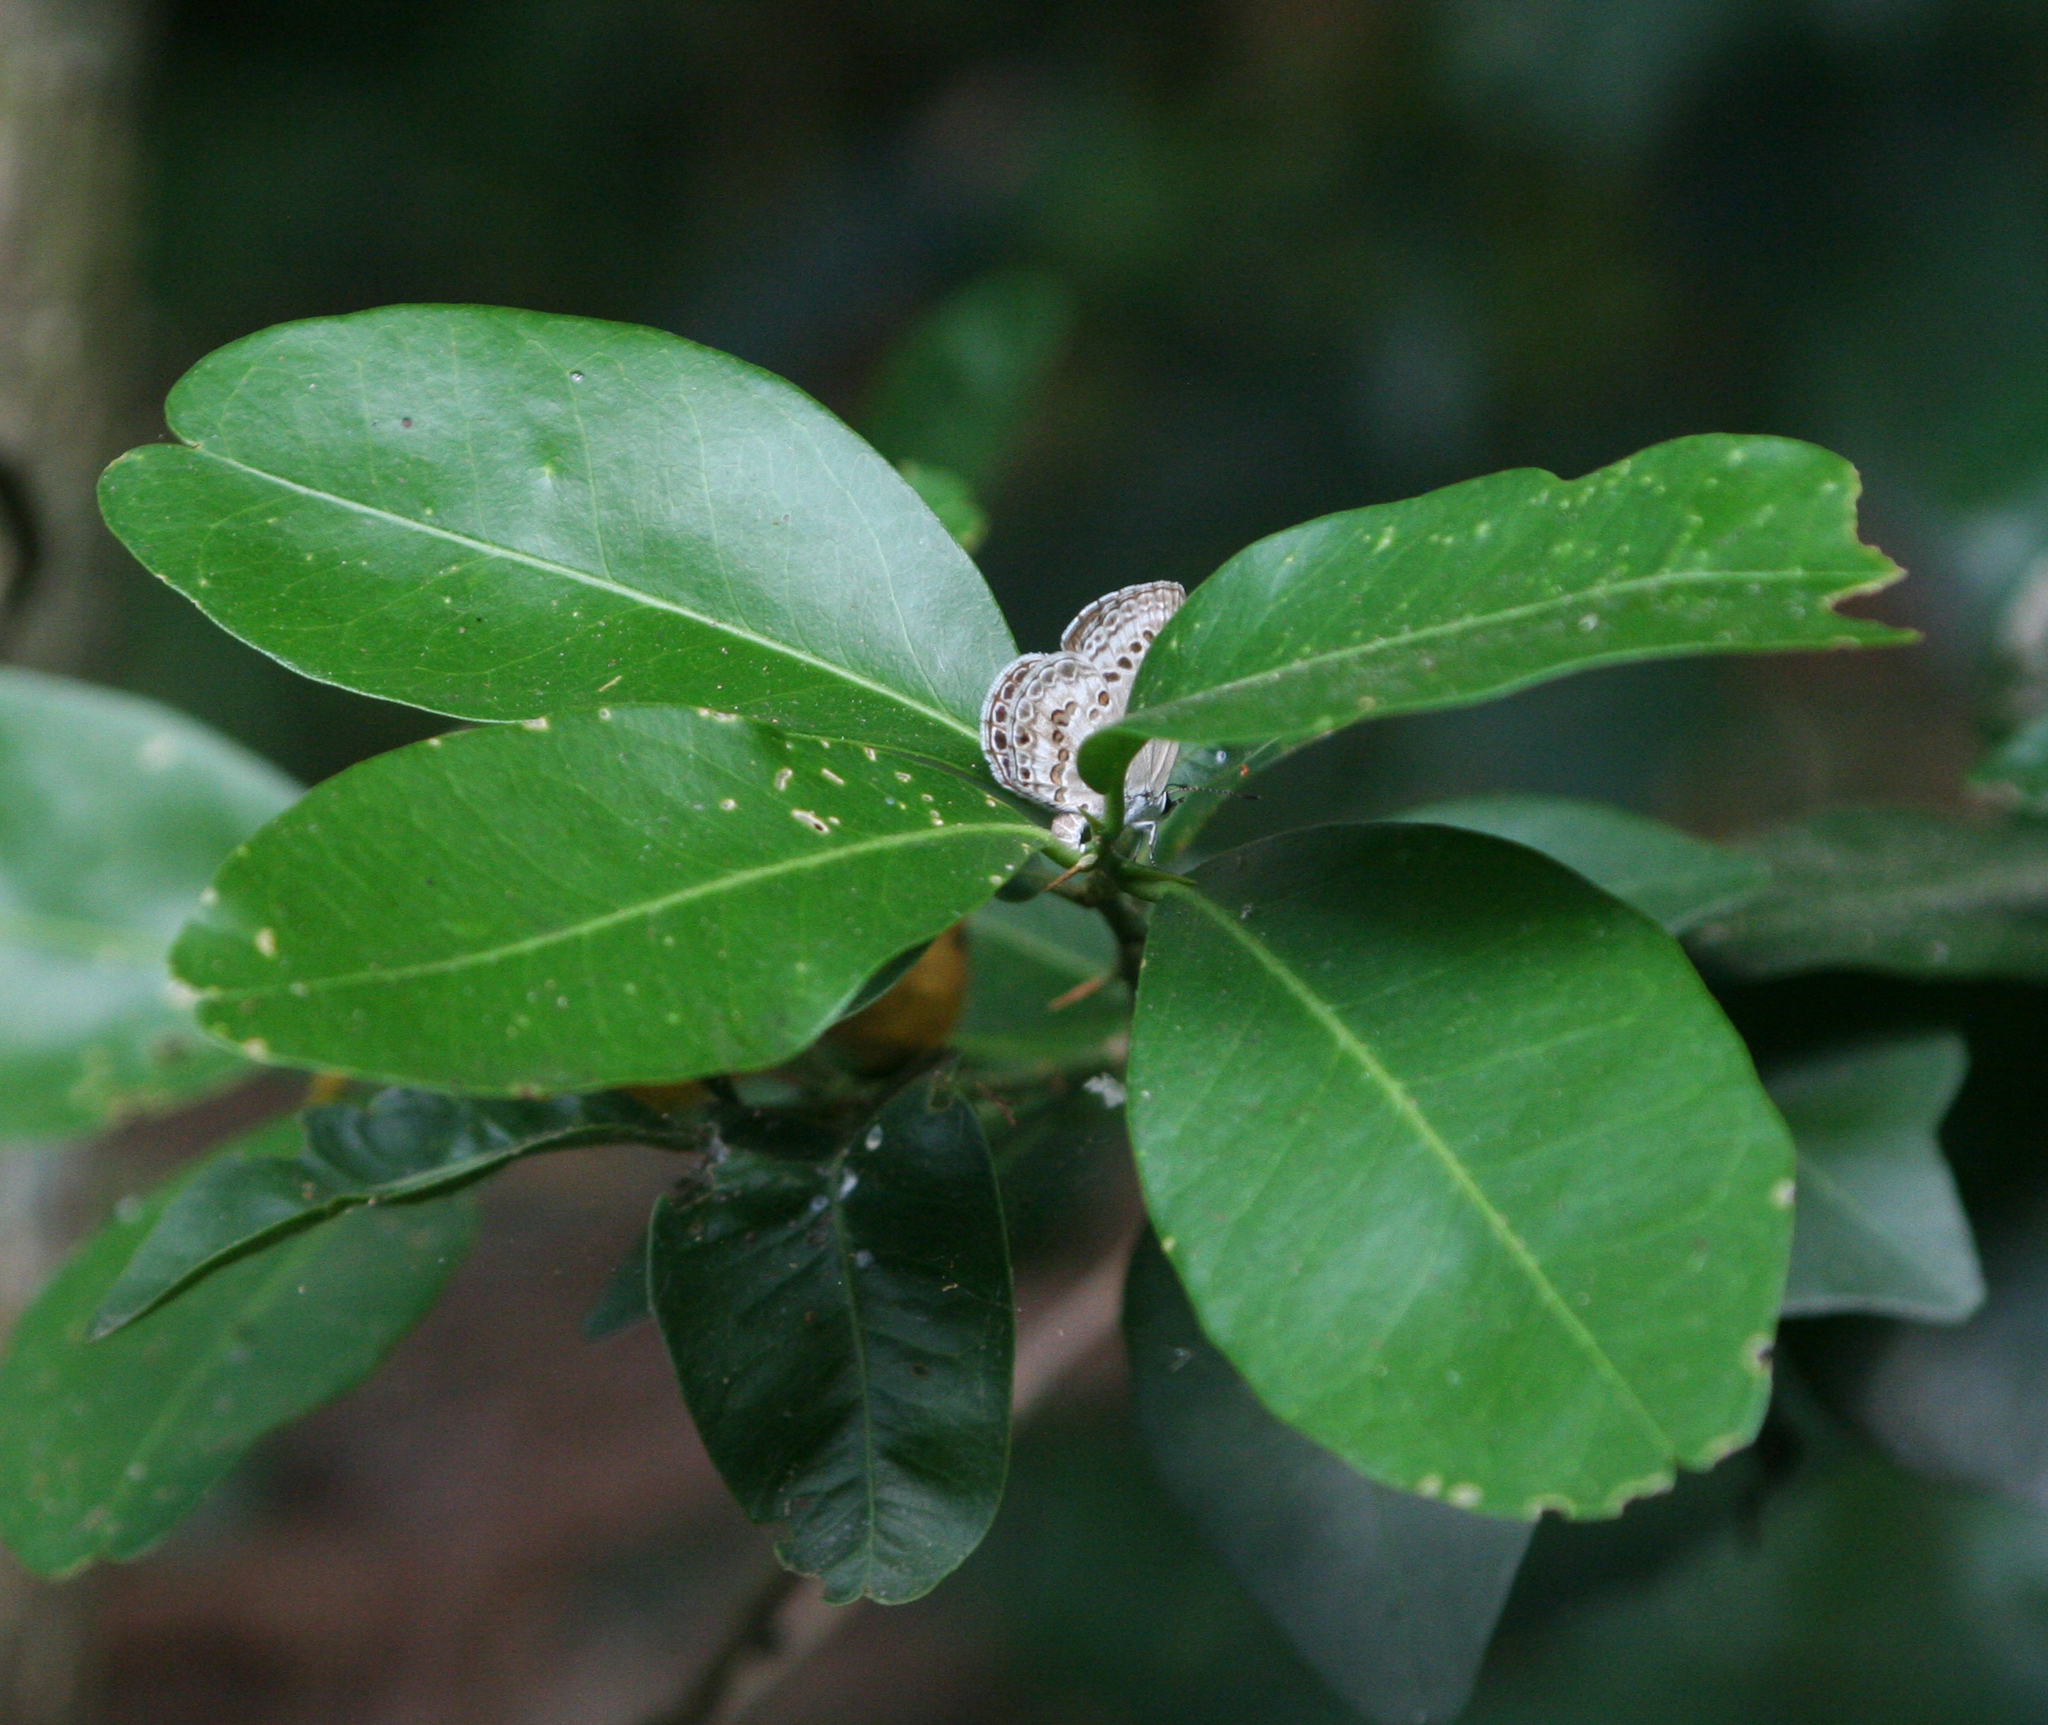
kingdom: Animalia
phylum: Arthropoda
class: Insecta
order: Lepidoptera
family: Lycaenidae
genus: Chilades
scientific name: Chilades laius
